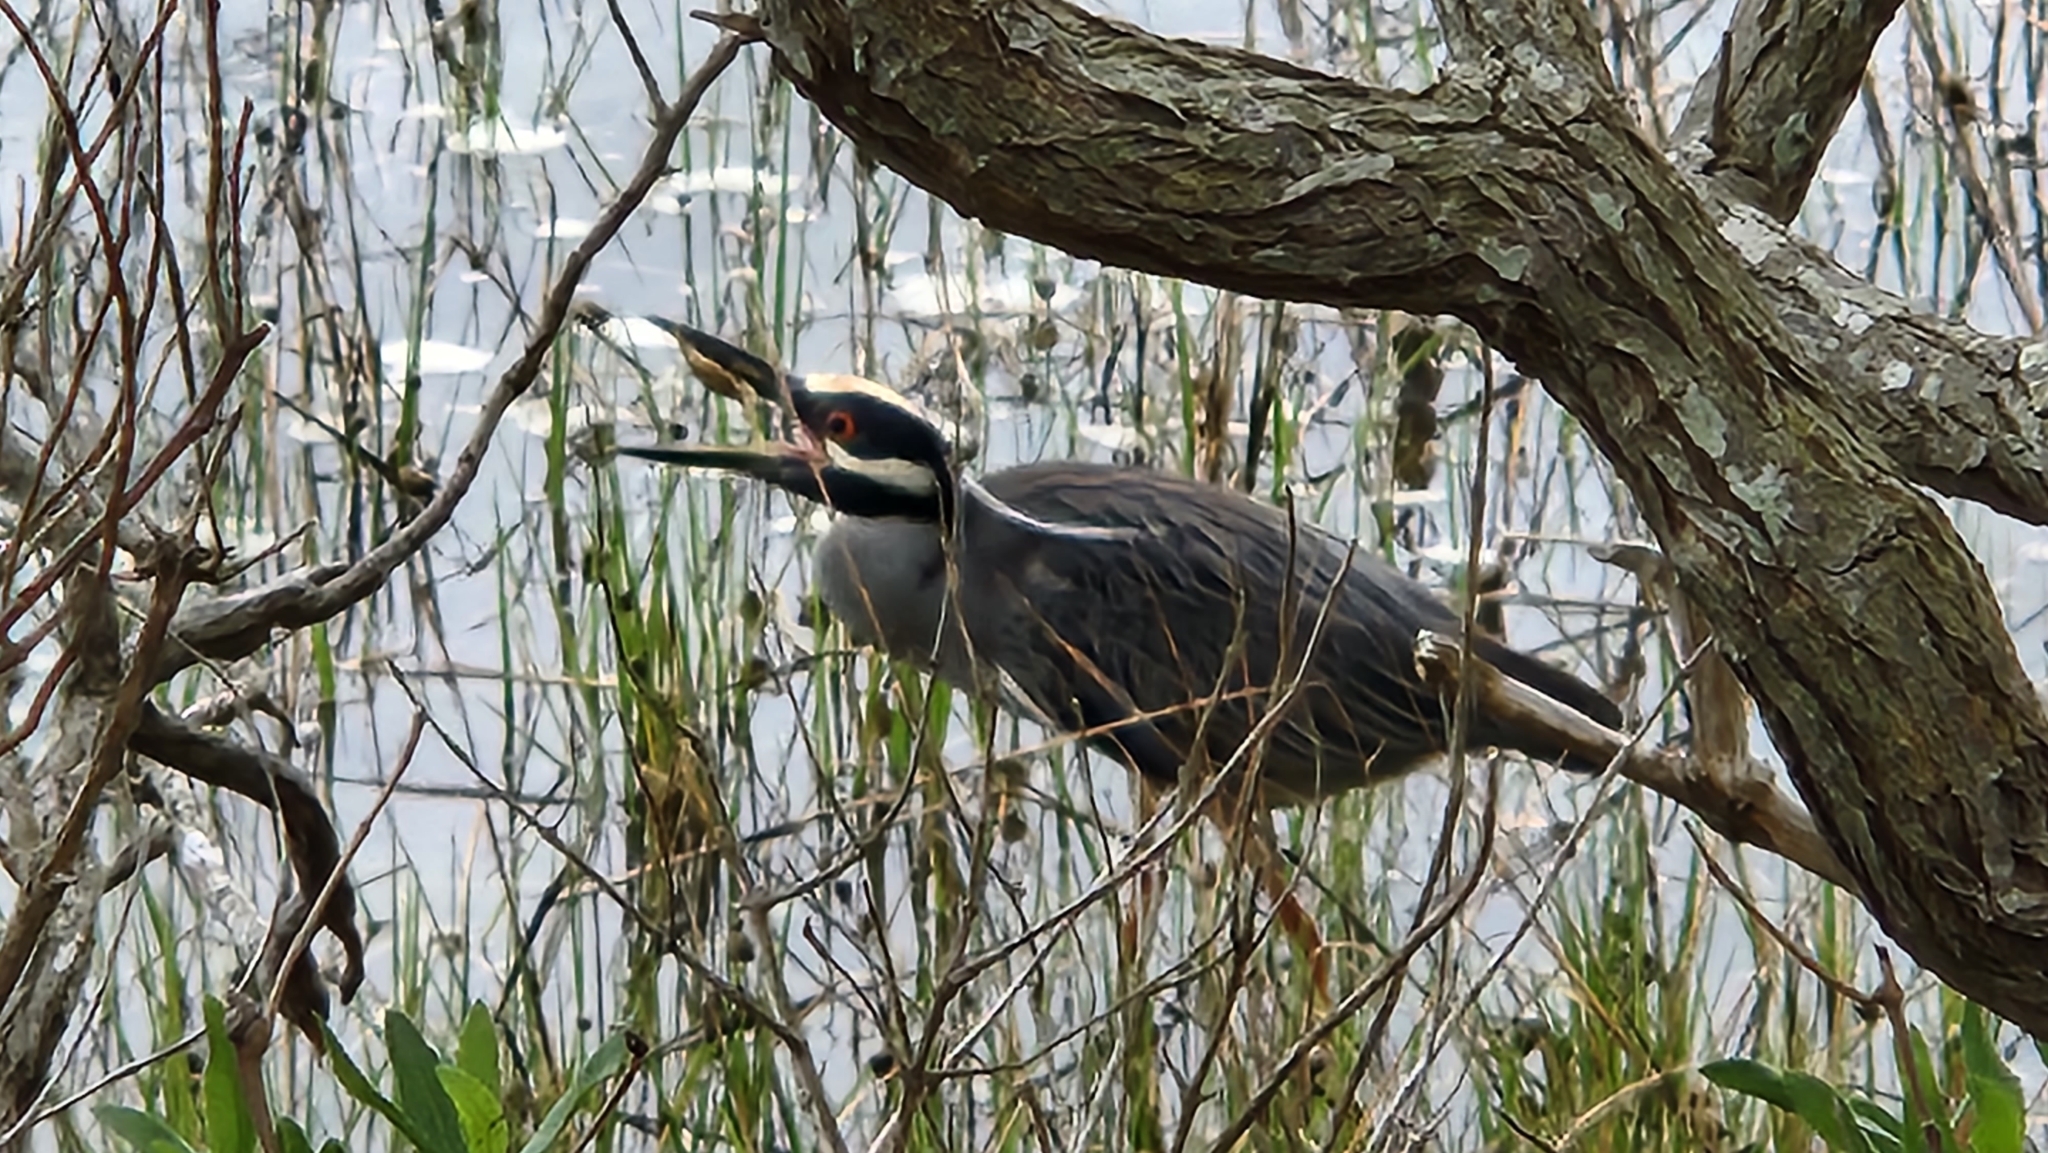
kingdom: Animalia
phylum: Chordata
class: Aves
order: Pelecaniformes
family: Ardeidae
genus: Nyctanassa
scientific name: Nyctanassa violacea
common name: Yellow-crowned night heron
